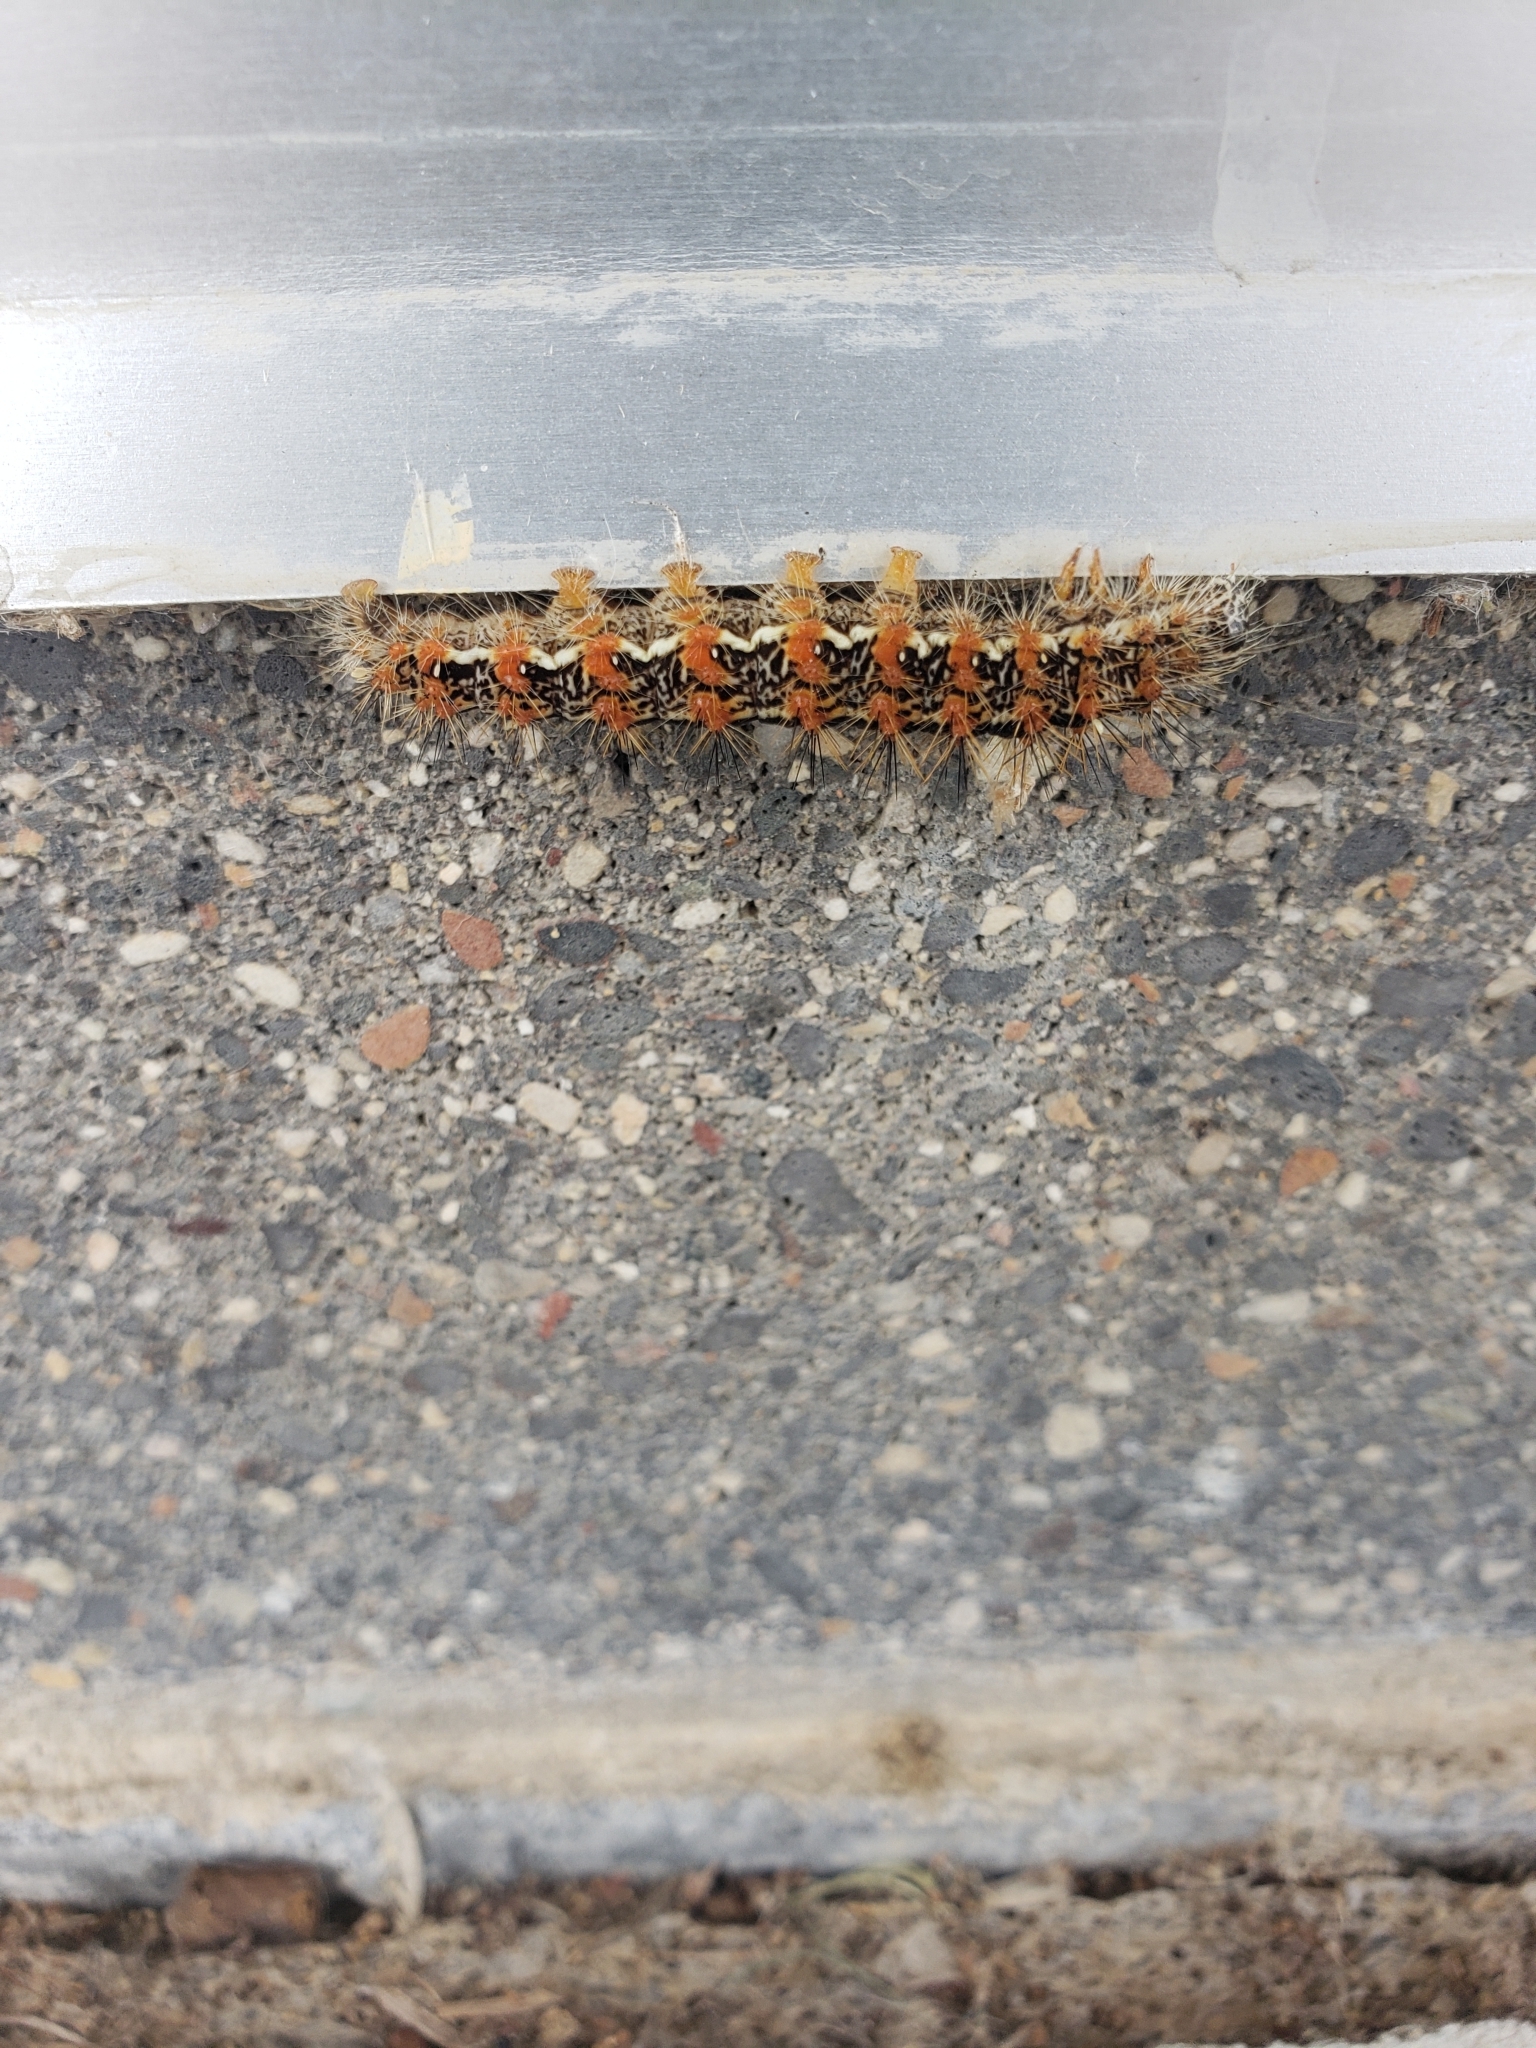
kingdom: Animalia
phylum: Arthropoda
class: Insecta
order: Lepidoptera
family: Noctuidae
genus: Acronicta
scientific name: Acronicta insularis
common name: Henry's marsh moth
